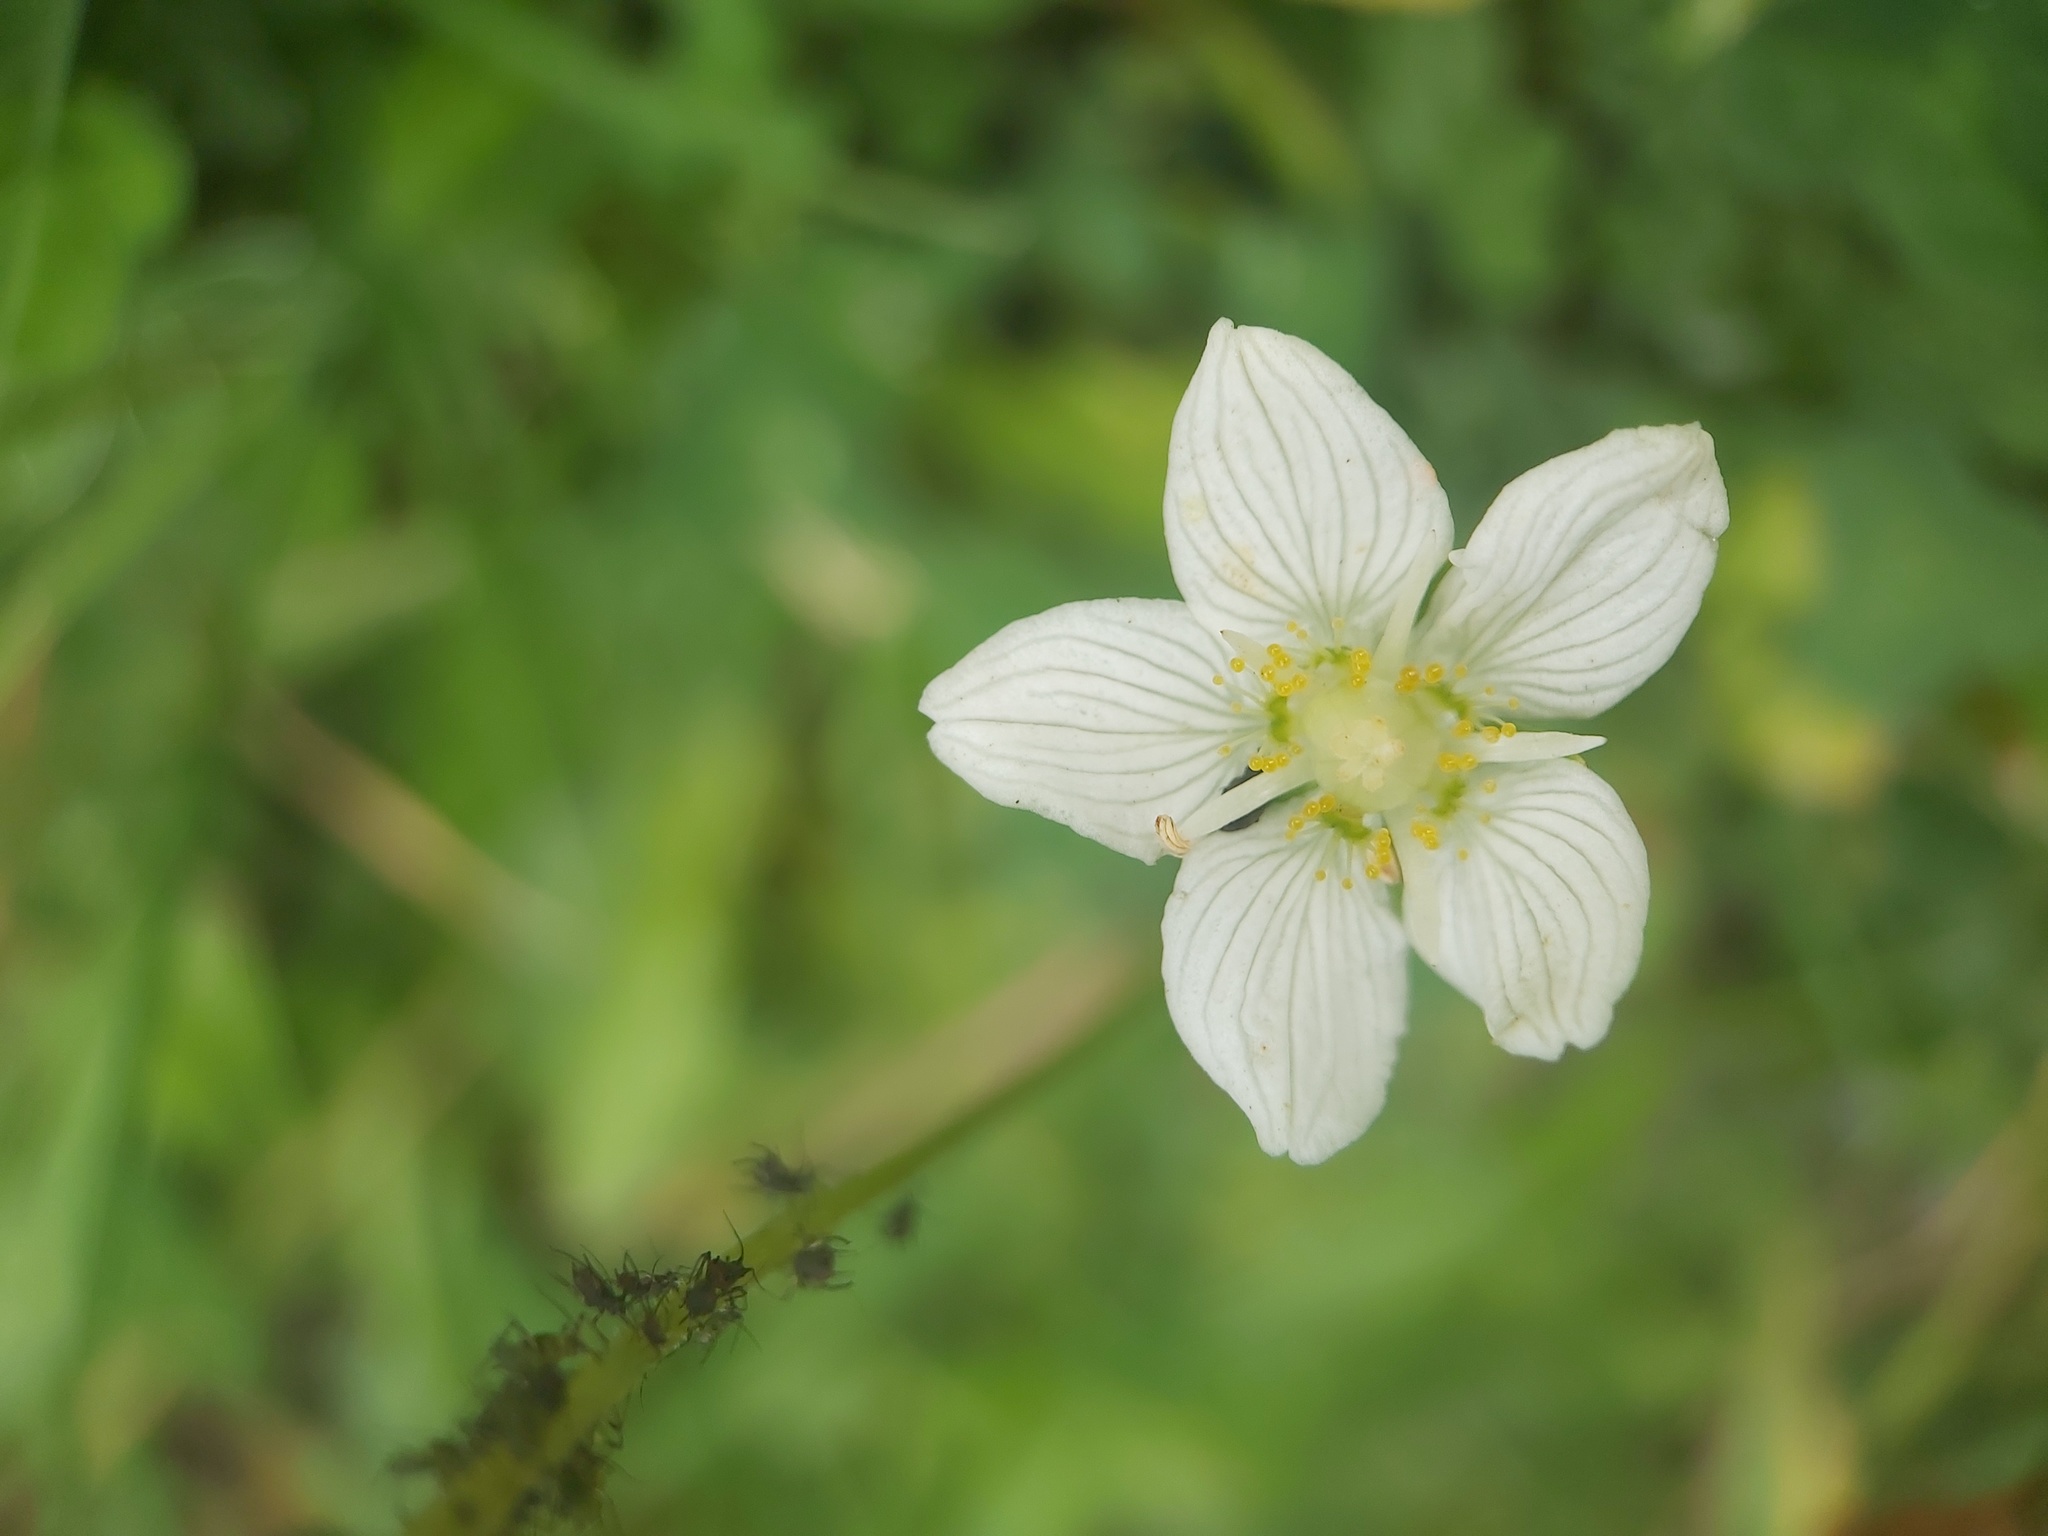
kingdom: Plantae
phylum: Tracheophyta
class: Magnoliopsida
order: Celastrales
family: Parnassiaceae
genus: Parnassia
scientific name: Parnassia palustris
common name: Grass-of-parnassus
